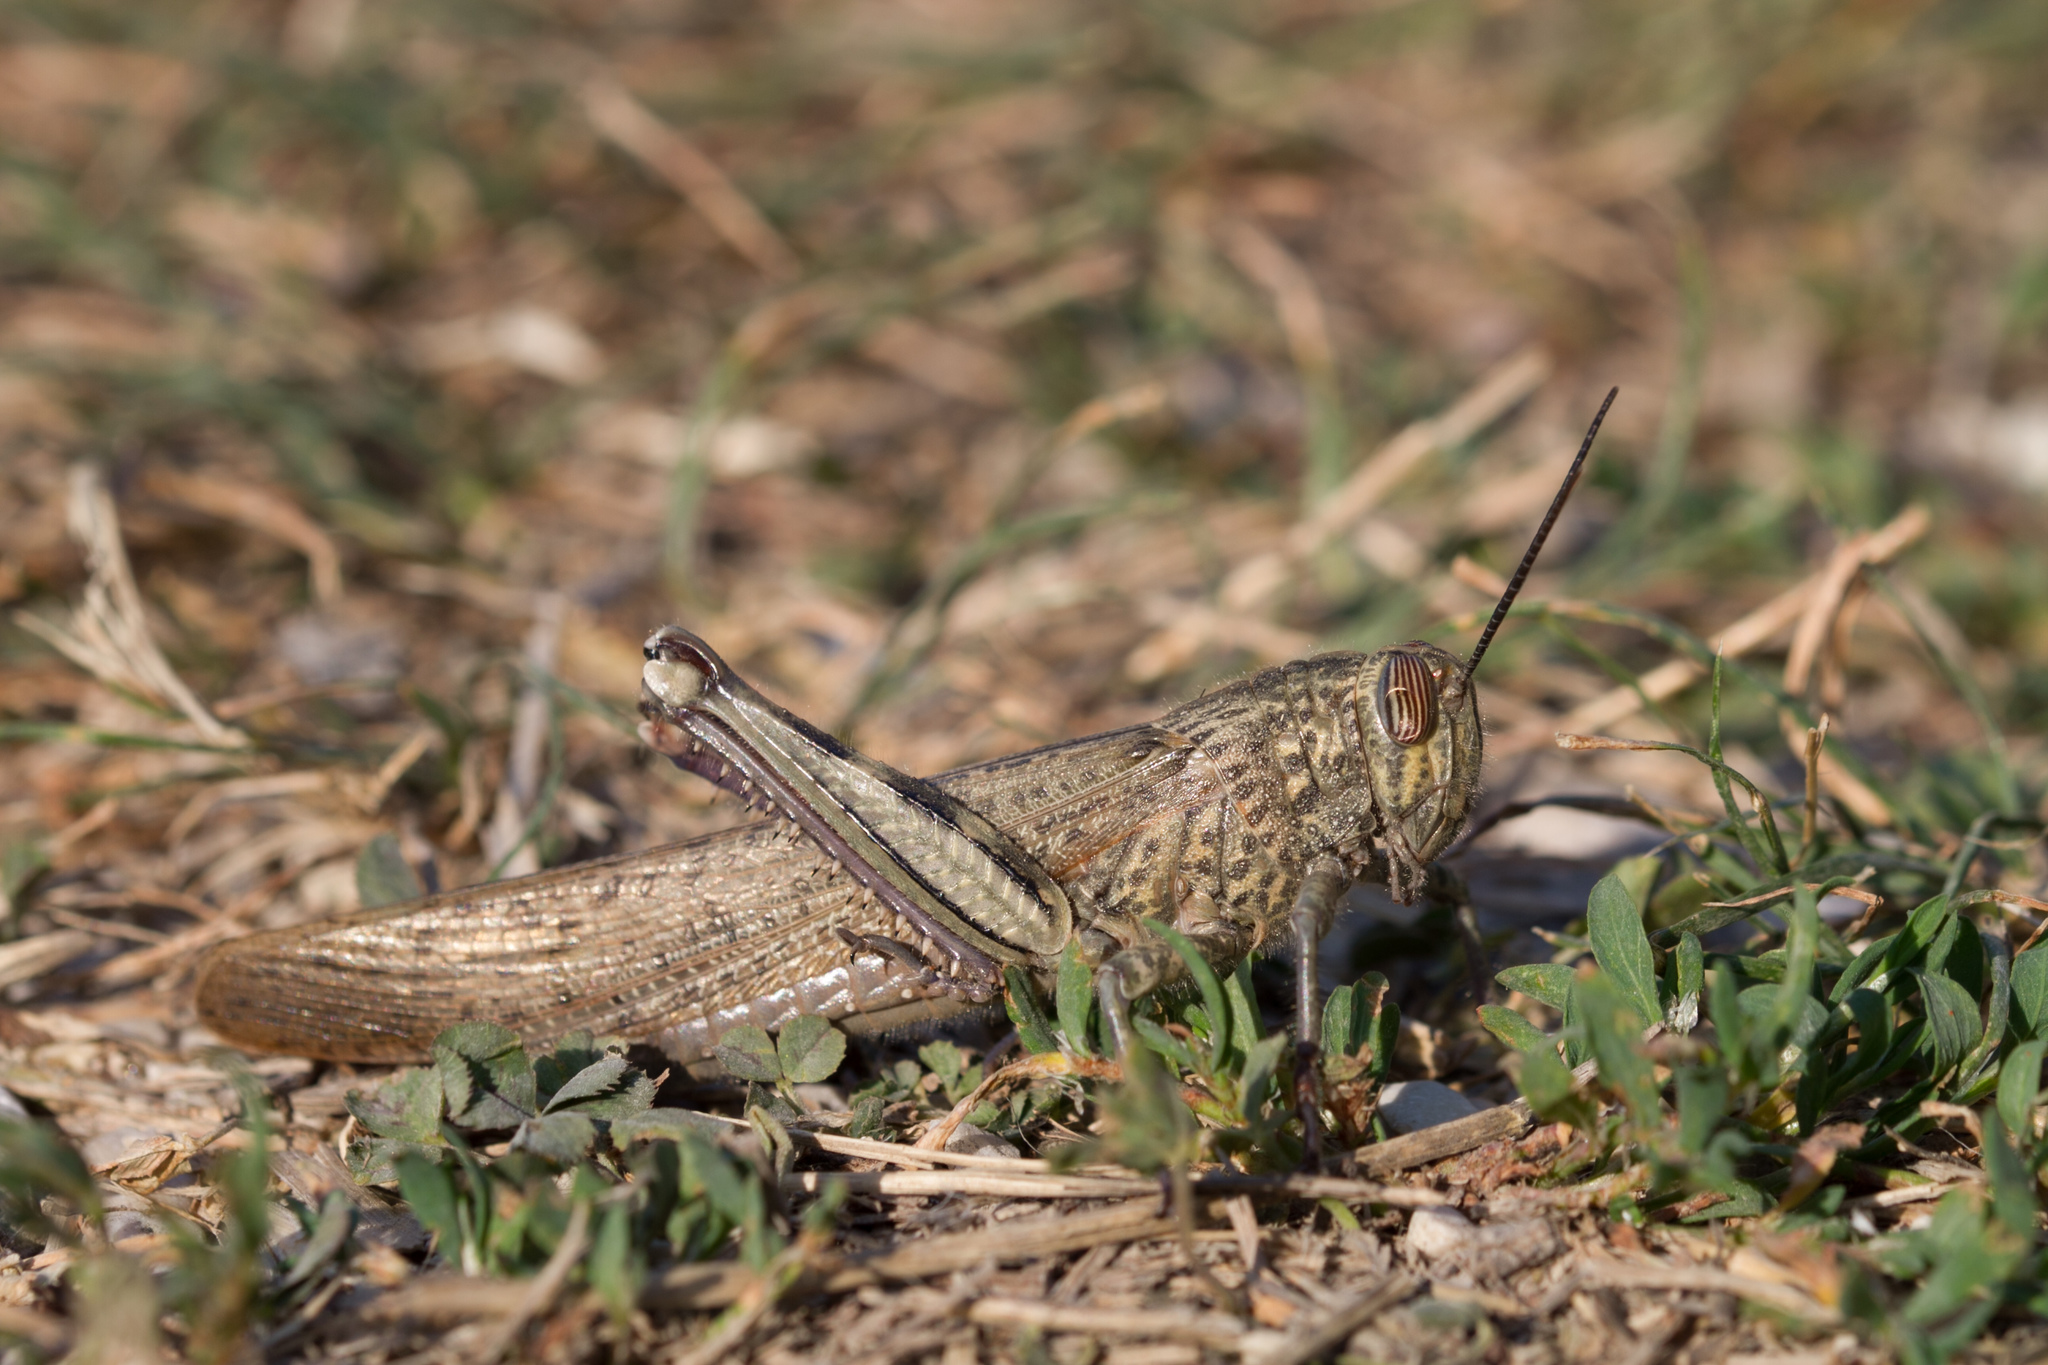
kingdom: Animalia
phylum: Arthropoda
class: Insecta
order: Orthoptera
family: Acrididae
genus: Anacridium
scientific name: Anacridium aegyptium
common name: Egyptian grasshopper
